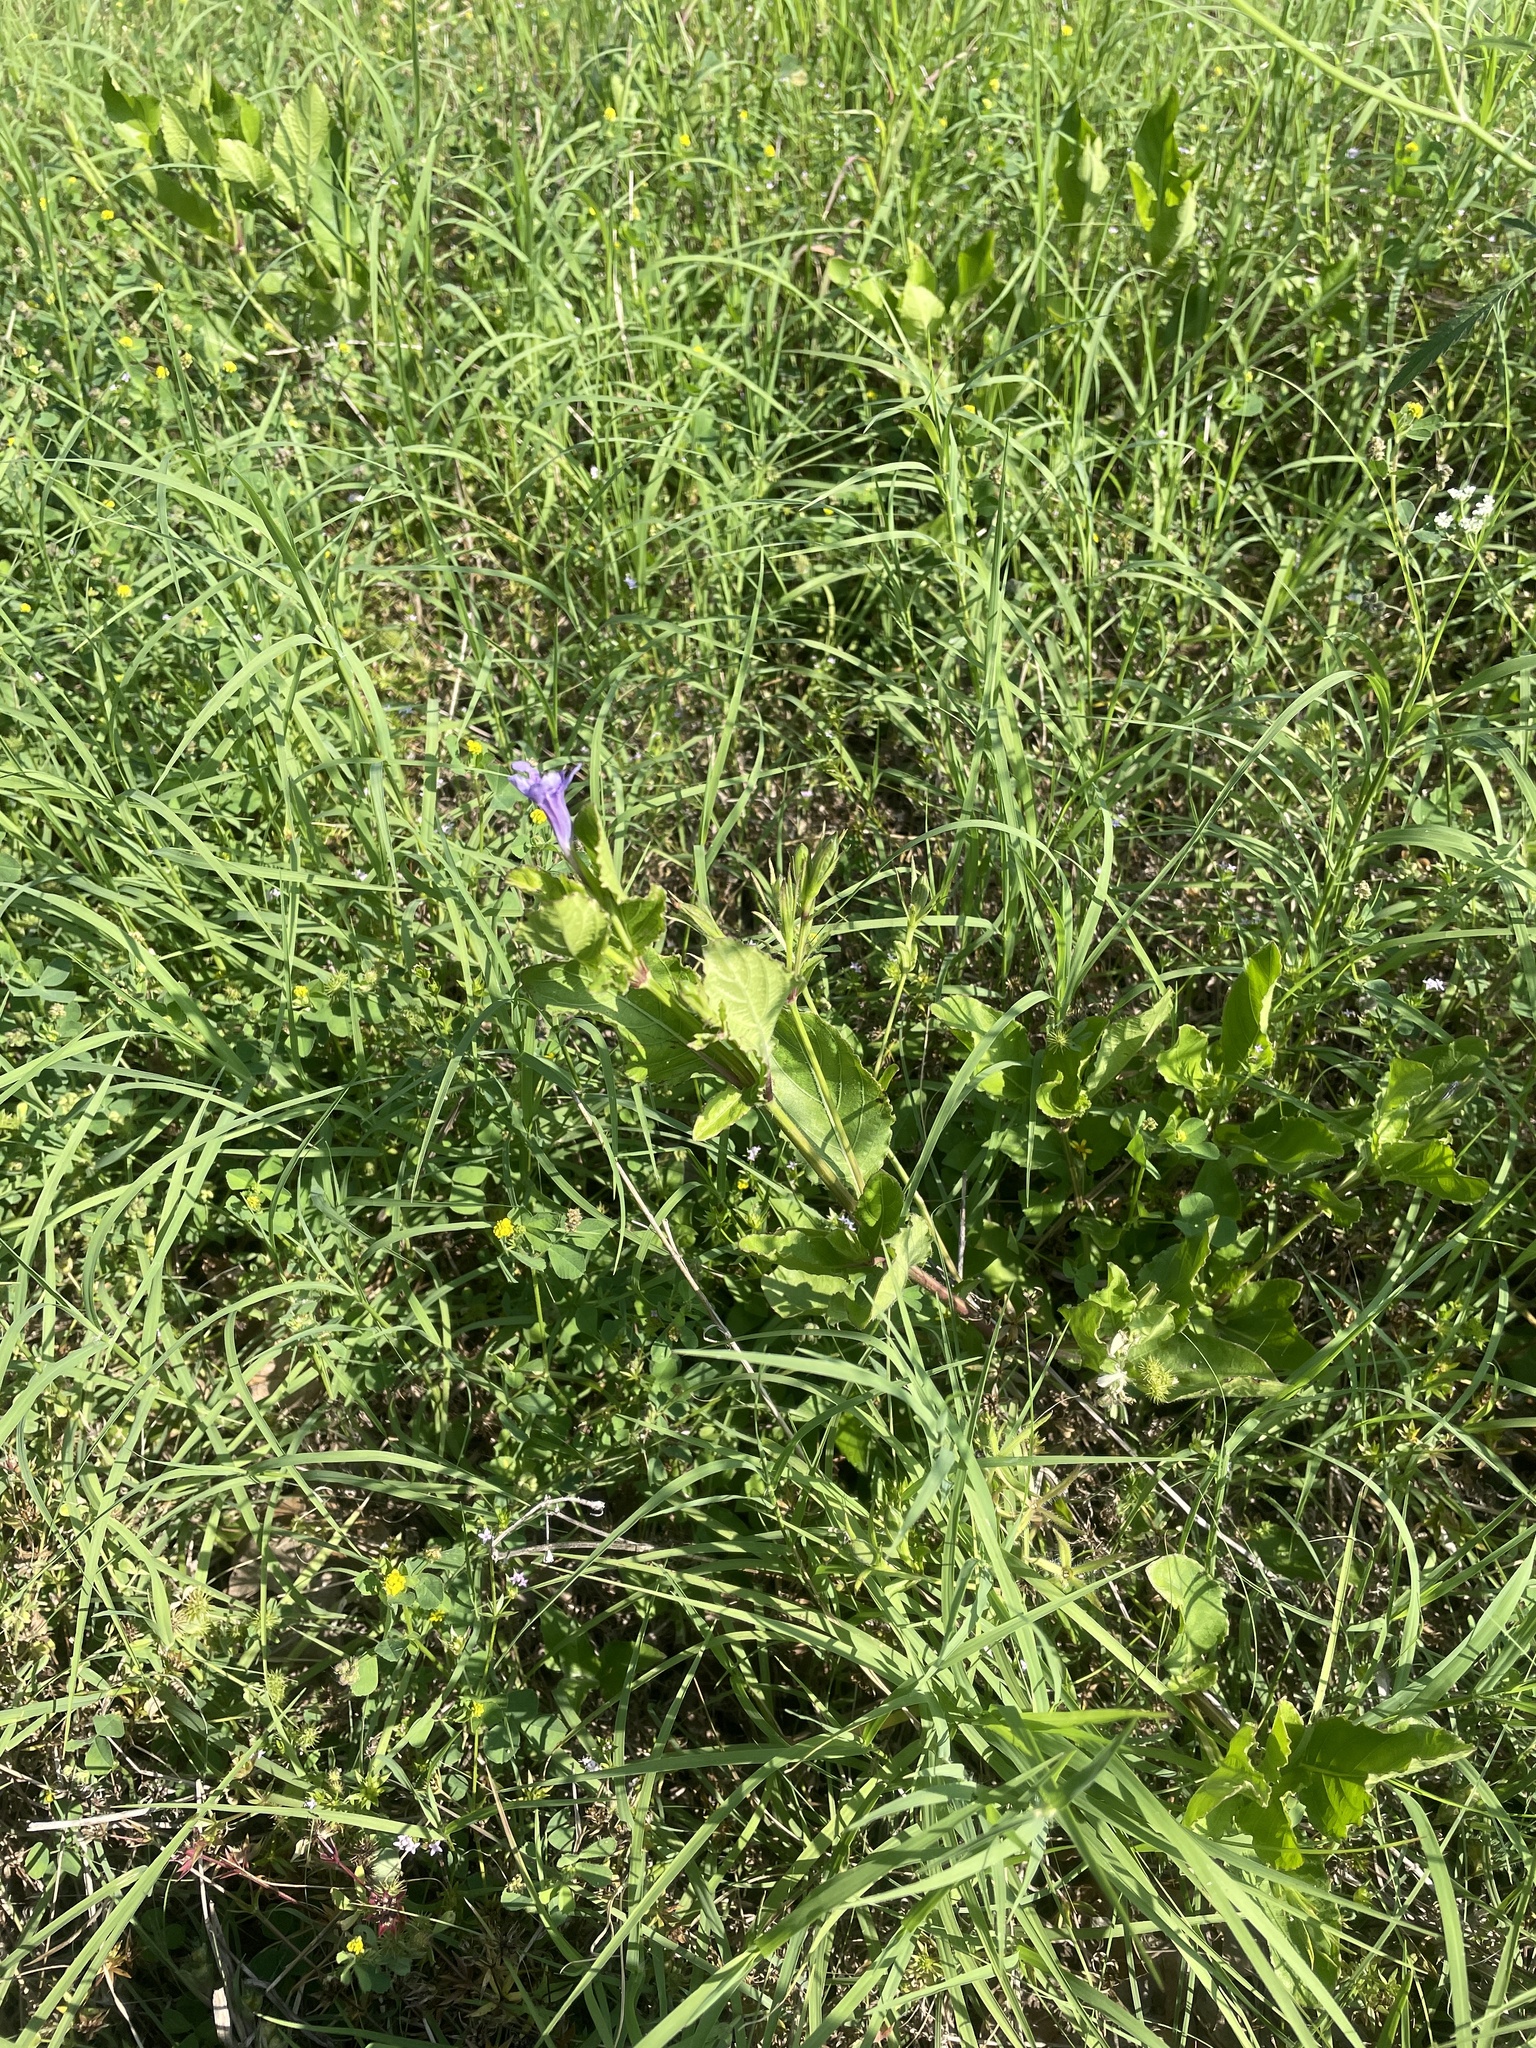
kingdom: Plantae
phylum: Tracheophyta
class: Magnoliopsida
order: Lamiales
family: Acanthaceae
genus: Ruellia
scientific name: Ruellia ciliatiflora
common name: Hairyflower wild petunia
